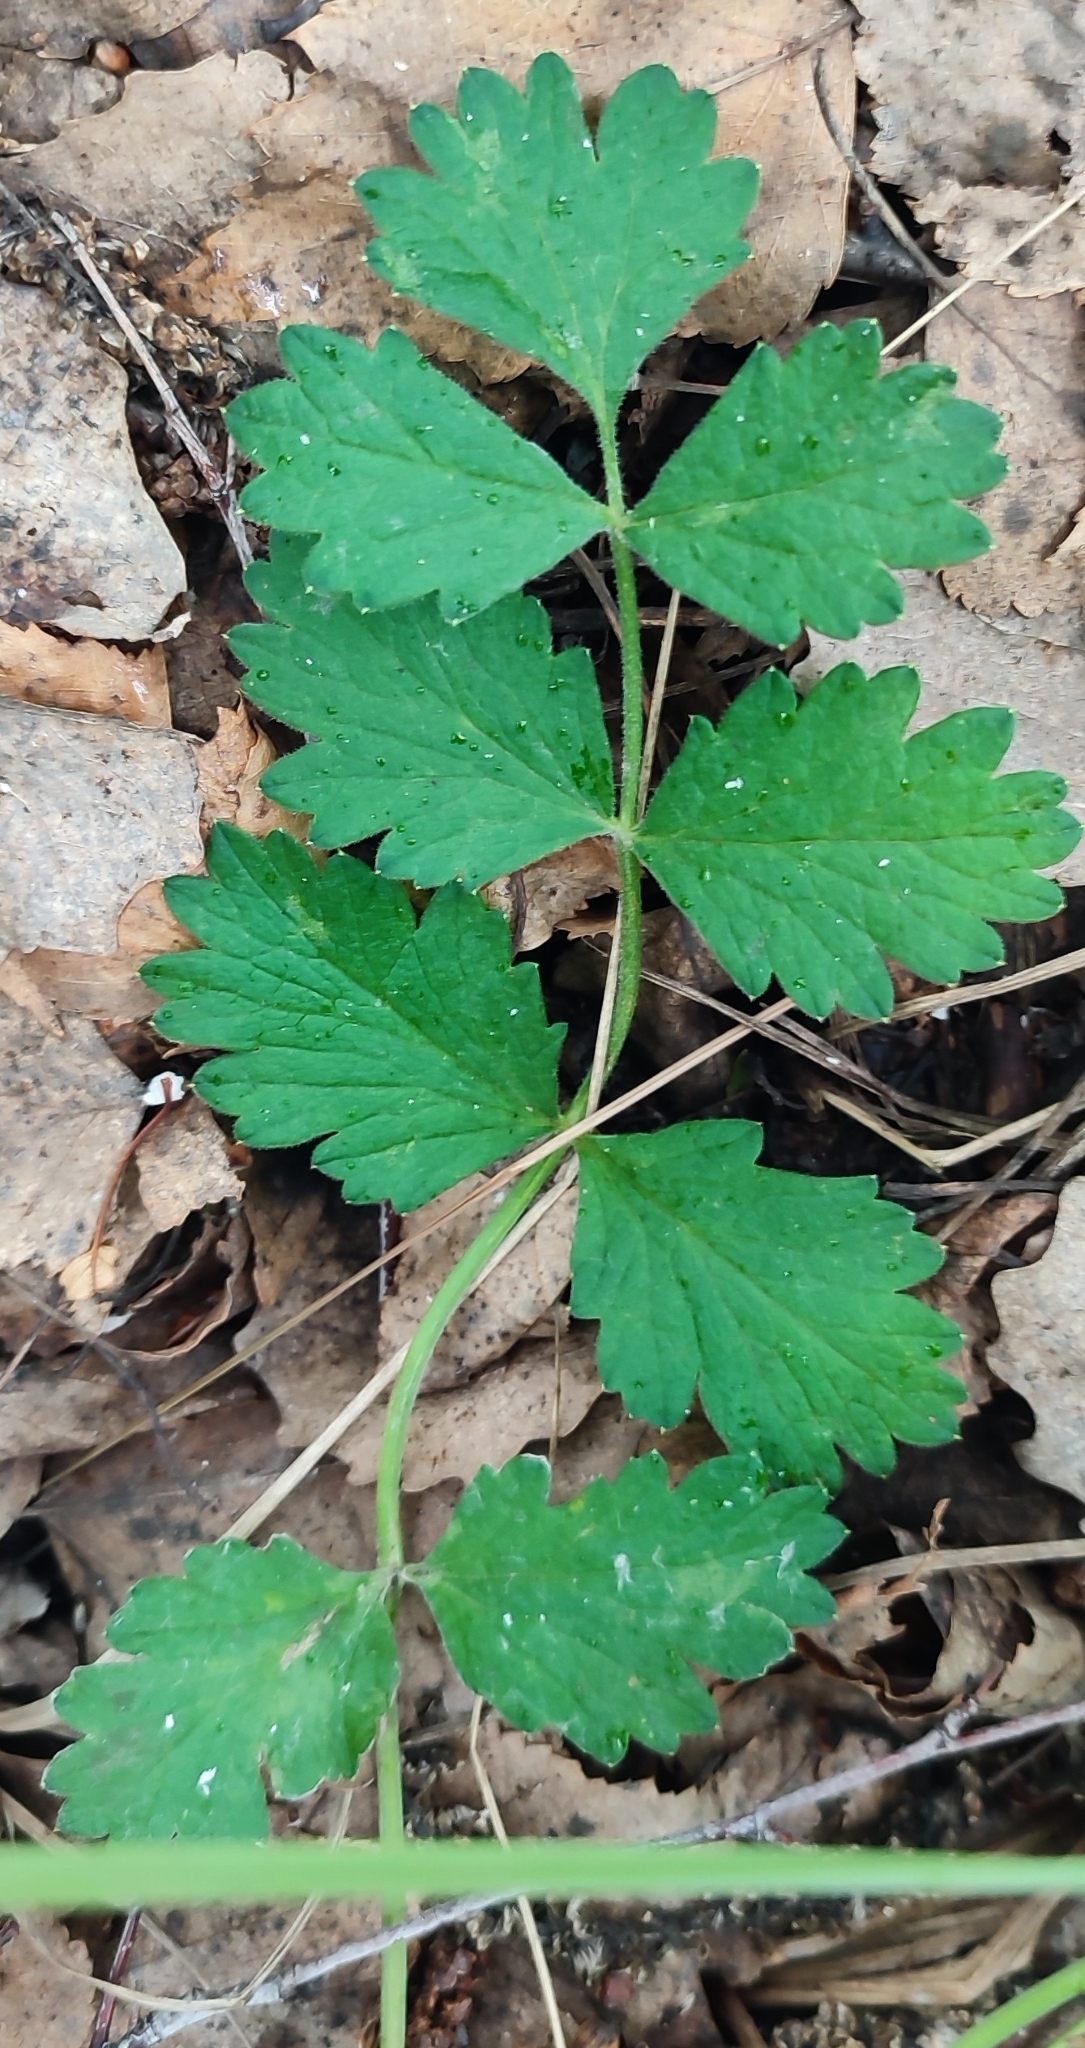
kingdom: Plantae
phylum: Tracheophyta
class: Magnoliopsida
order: Apiales
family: Apiaceae
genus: Pimpinella
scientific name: Pimpinella saxifraga
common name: Burnet-saxifrage
